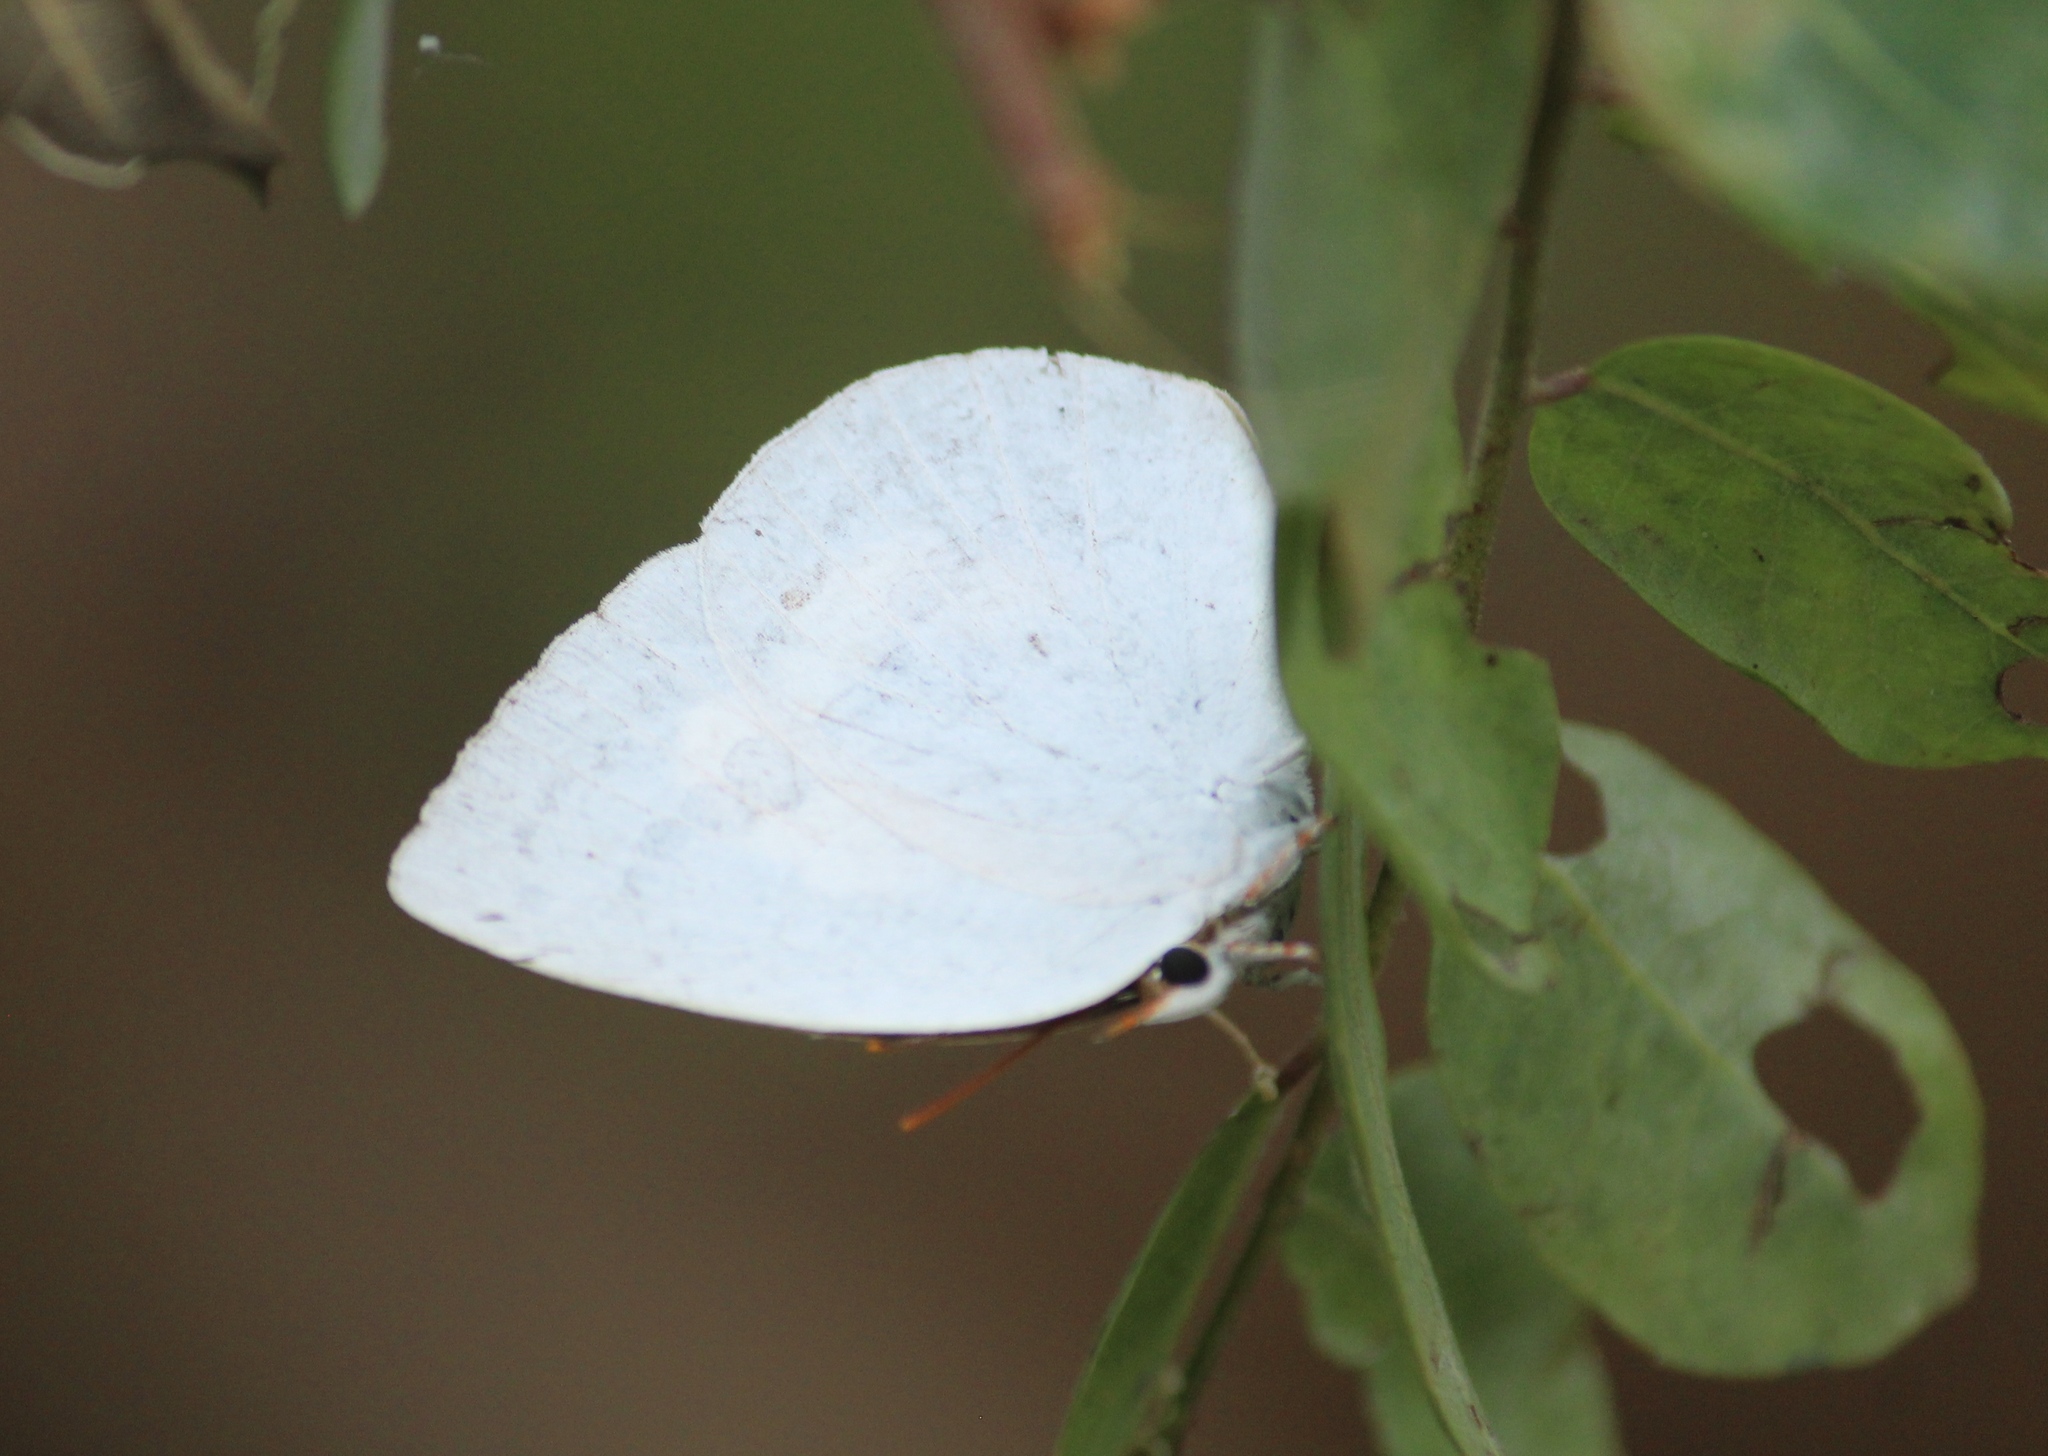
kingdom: Animalia
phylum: Arthropoda
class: Insecta
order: Lepidoptera
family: Lycaenidae
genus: Curetis
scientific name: Curetis thetis
